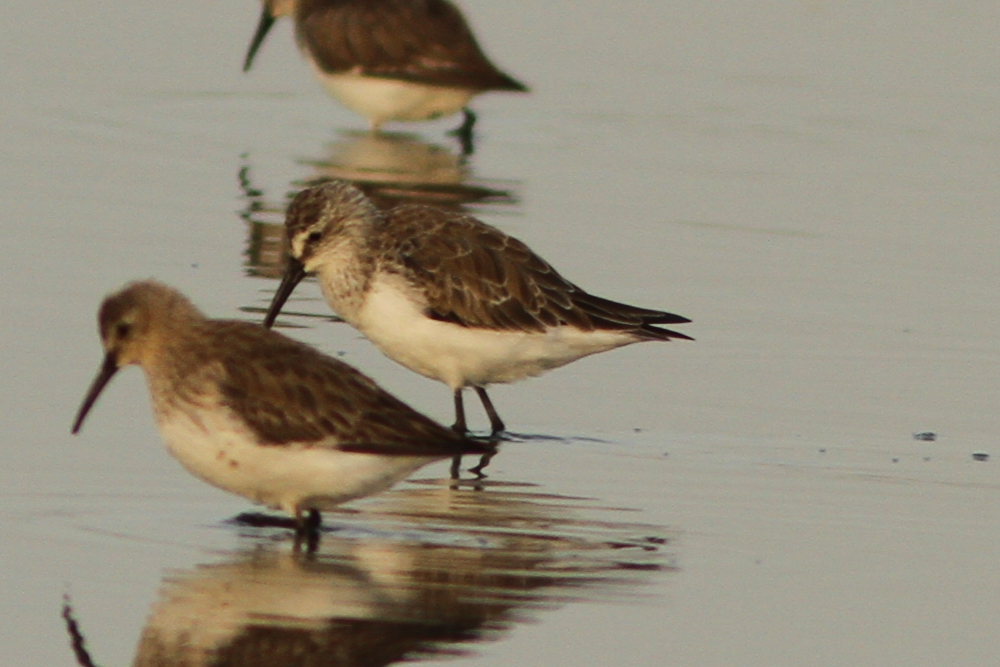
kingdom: Animalia
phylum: Chordata
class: Aves
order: Charadriiformes
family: Scolopacidae
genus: Calidris
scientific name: Calidris ferruginea
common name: Curlew sandpiper
